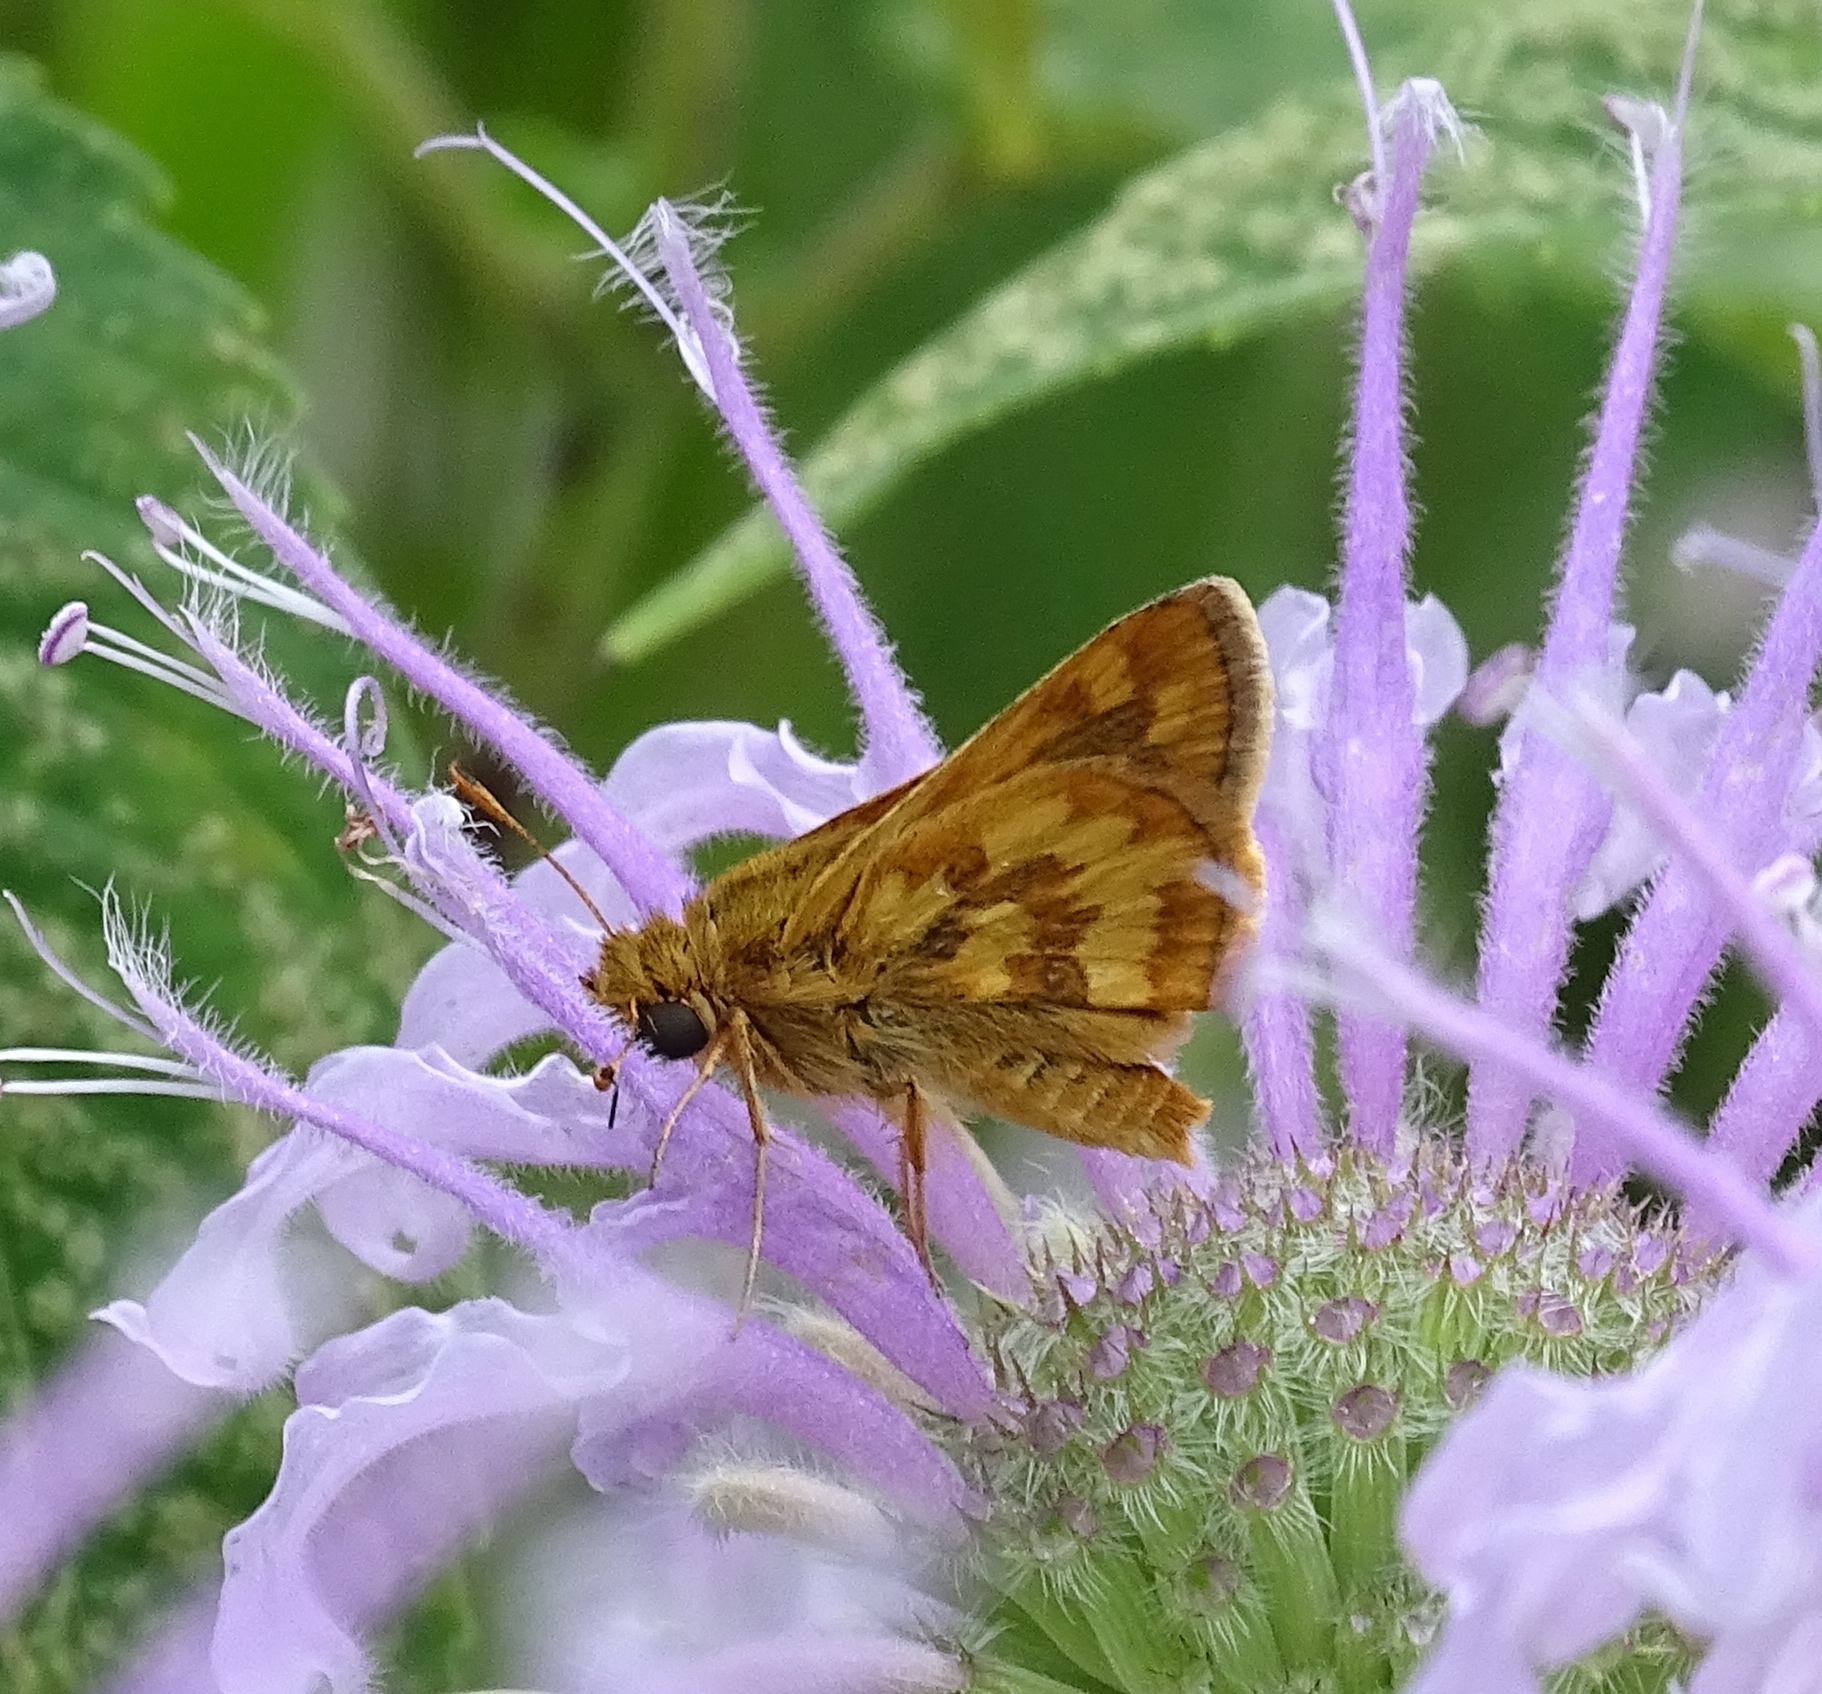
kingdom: Animalia
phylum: Arthropoda
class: Insecta
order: Lepidoptera
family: Hesperiidae
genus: Polites
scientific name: Polites coras
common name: Peck's skipper
